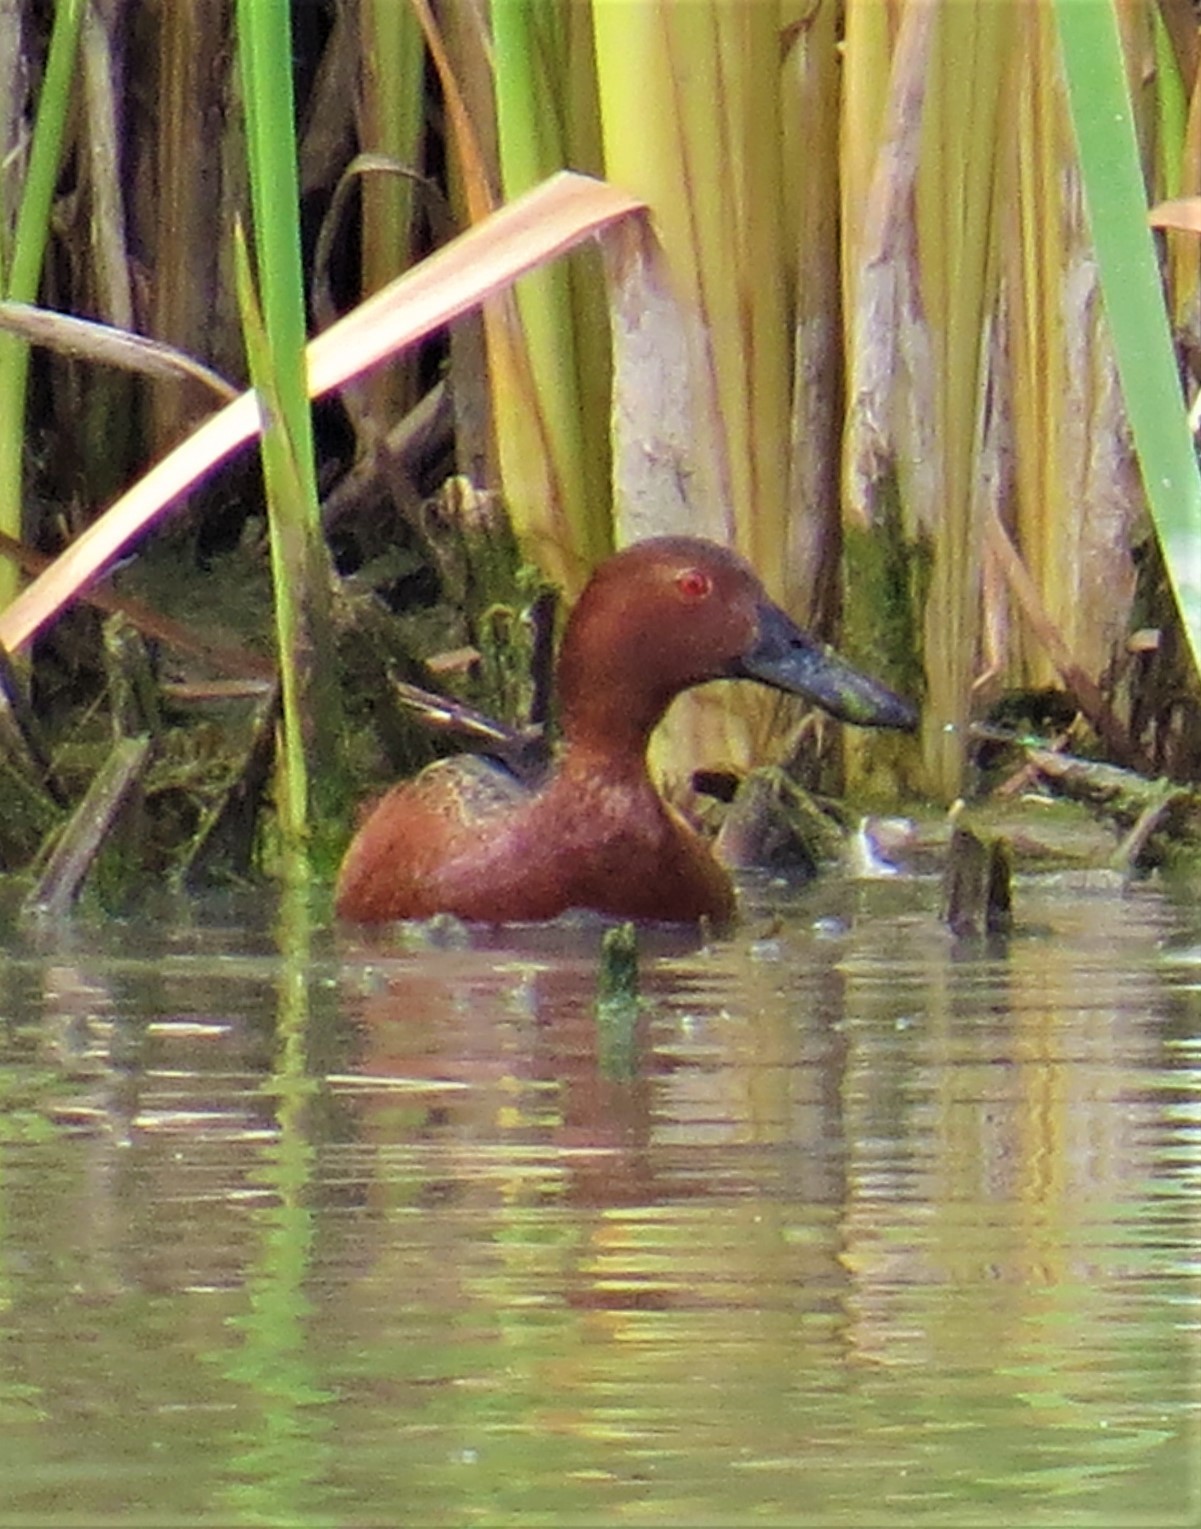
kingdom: Animalia
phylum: Chordata
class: Aves
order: Anseriformes
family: Anatidae
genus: Spatula
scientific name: Spatula cyanoptera
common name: Cinnamon teal
